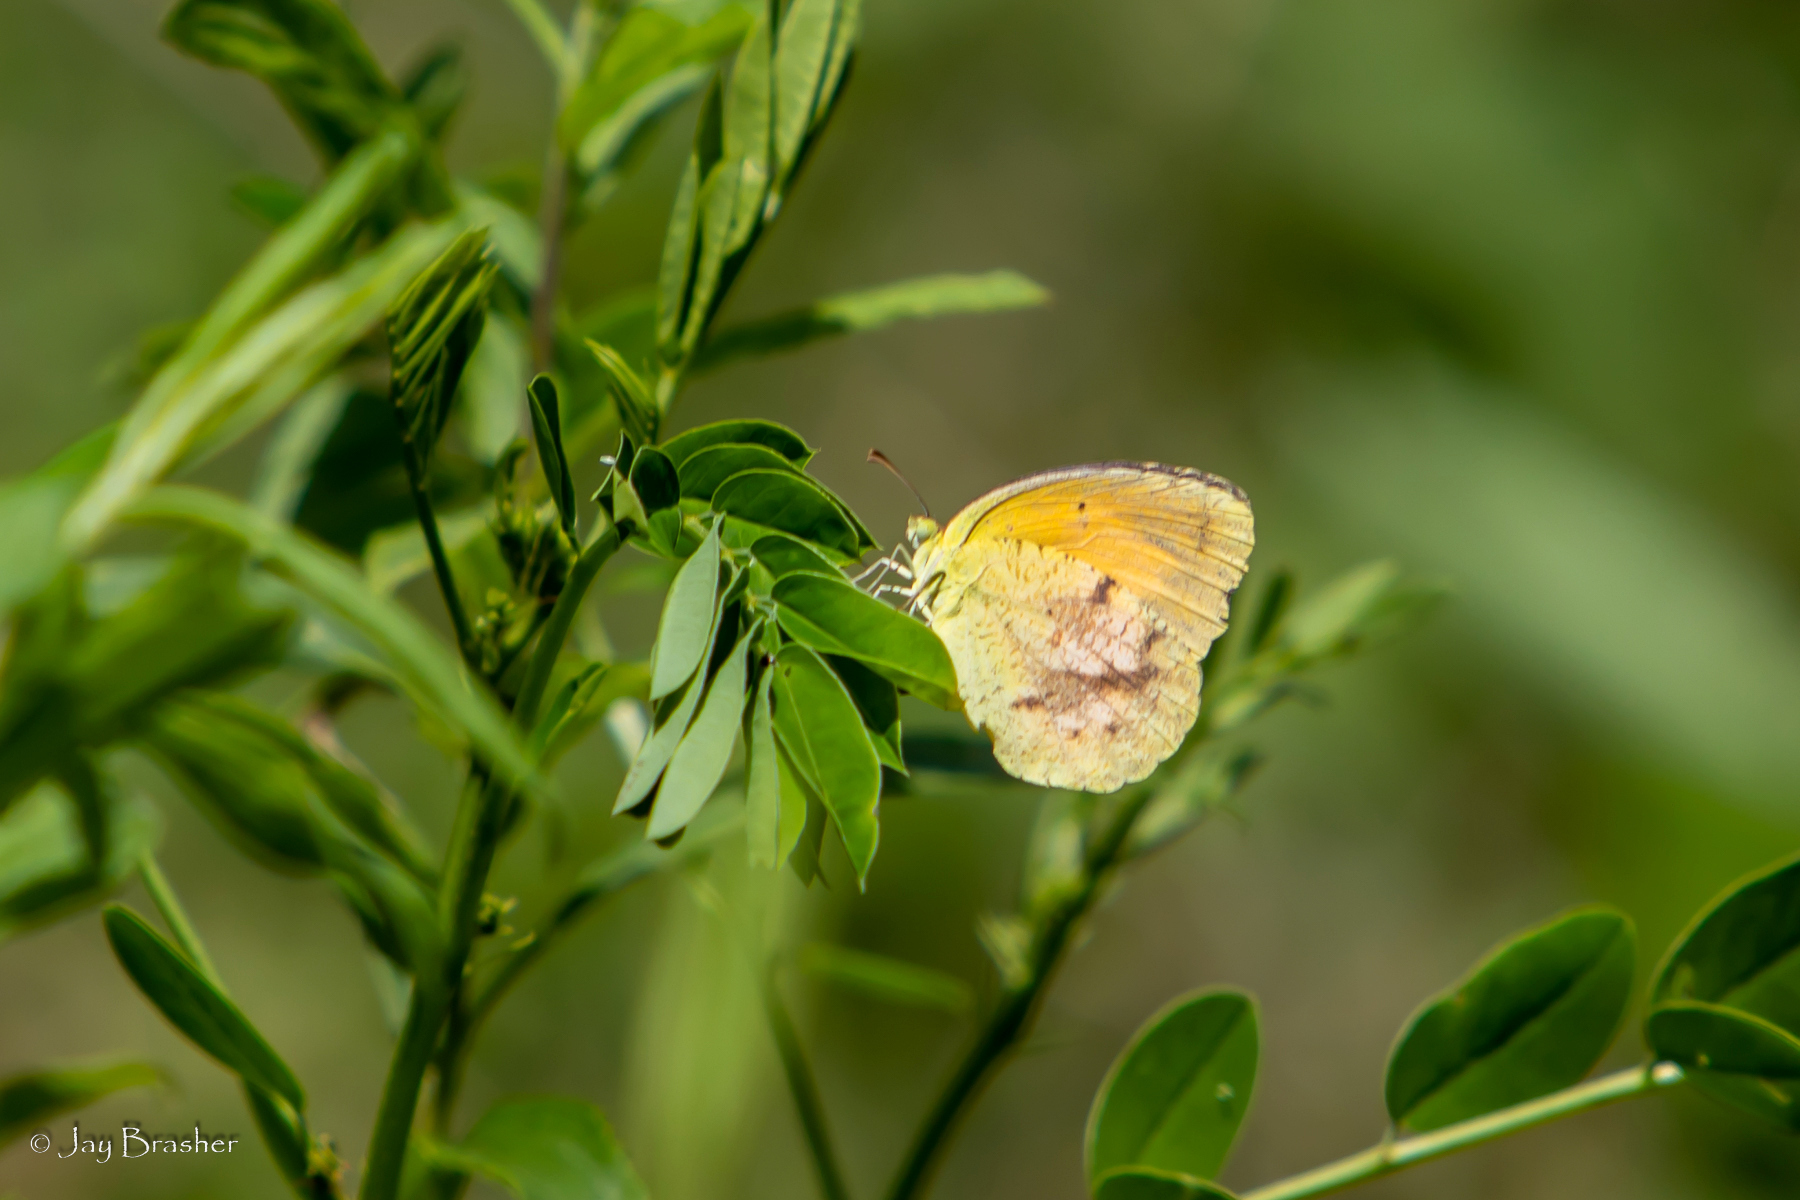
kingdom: Animalia
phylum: Arthropoda
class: Insecta
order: Lepidoptera
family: Pieridae
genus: Abaeis
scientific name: Abaeis nicippe
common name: Sleepy orange
